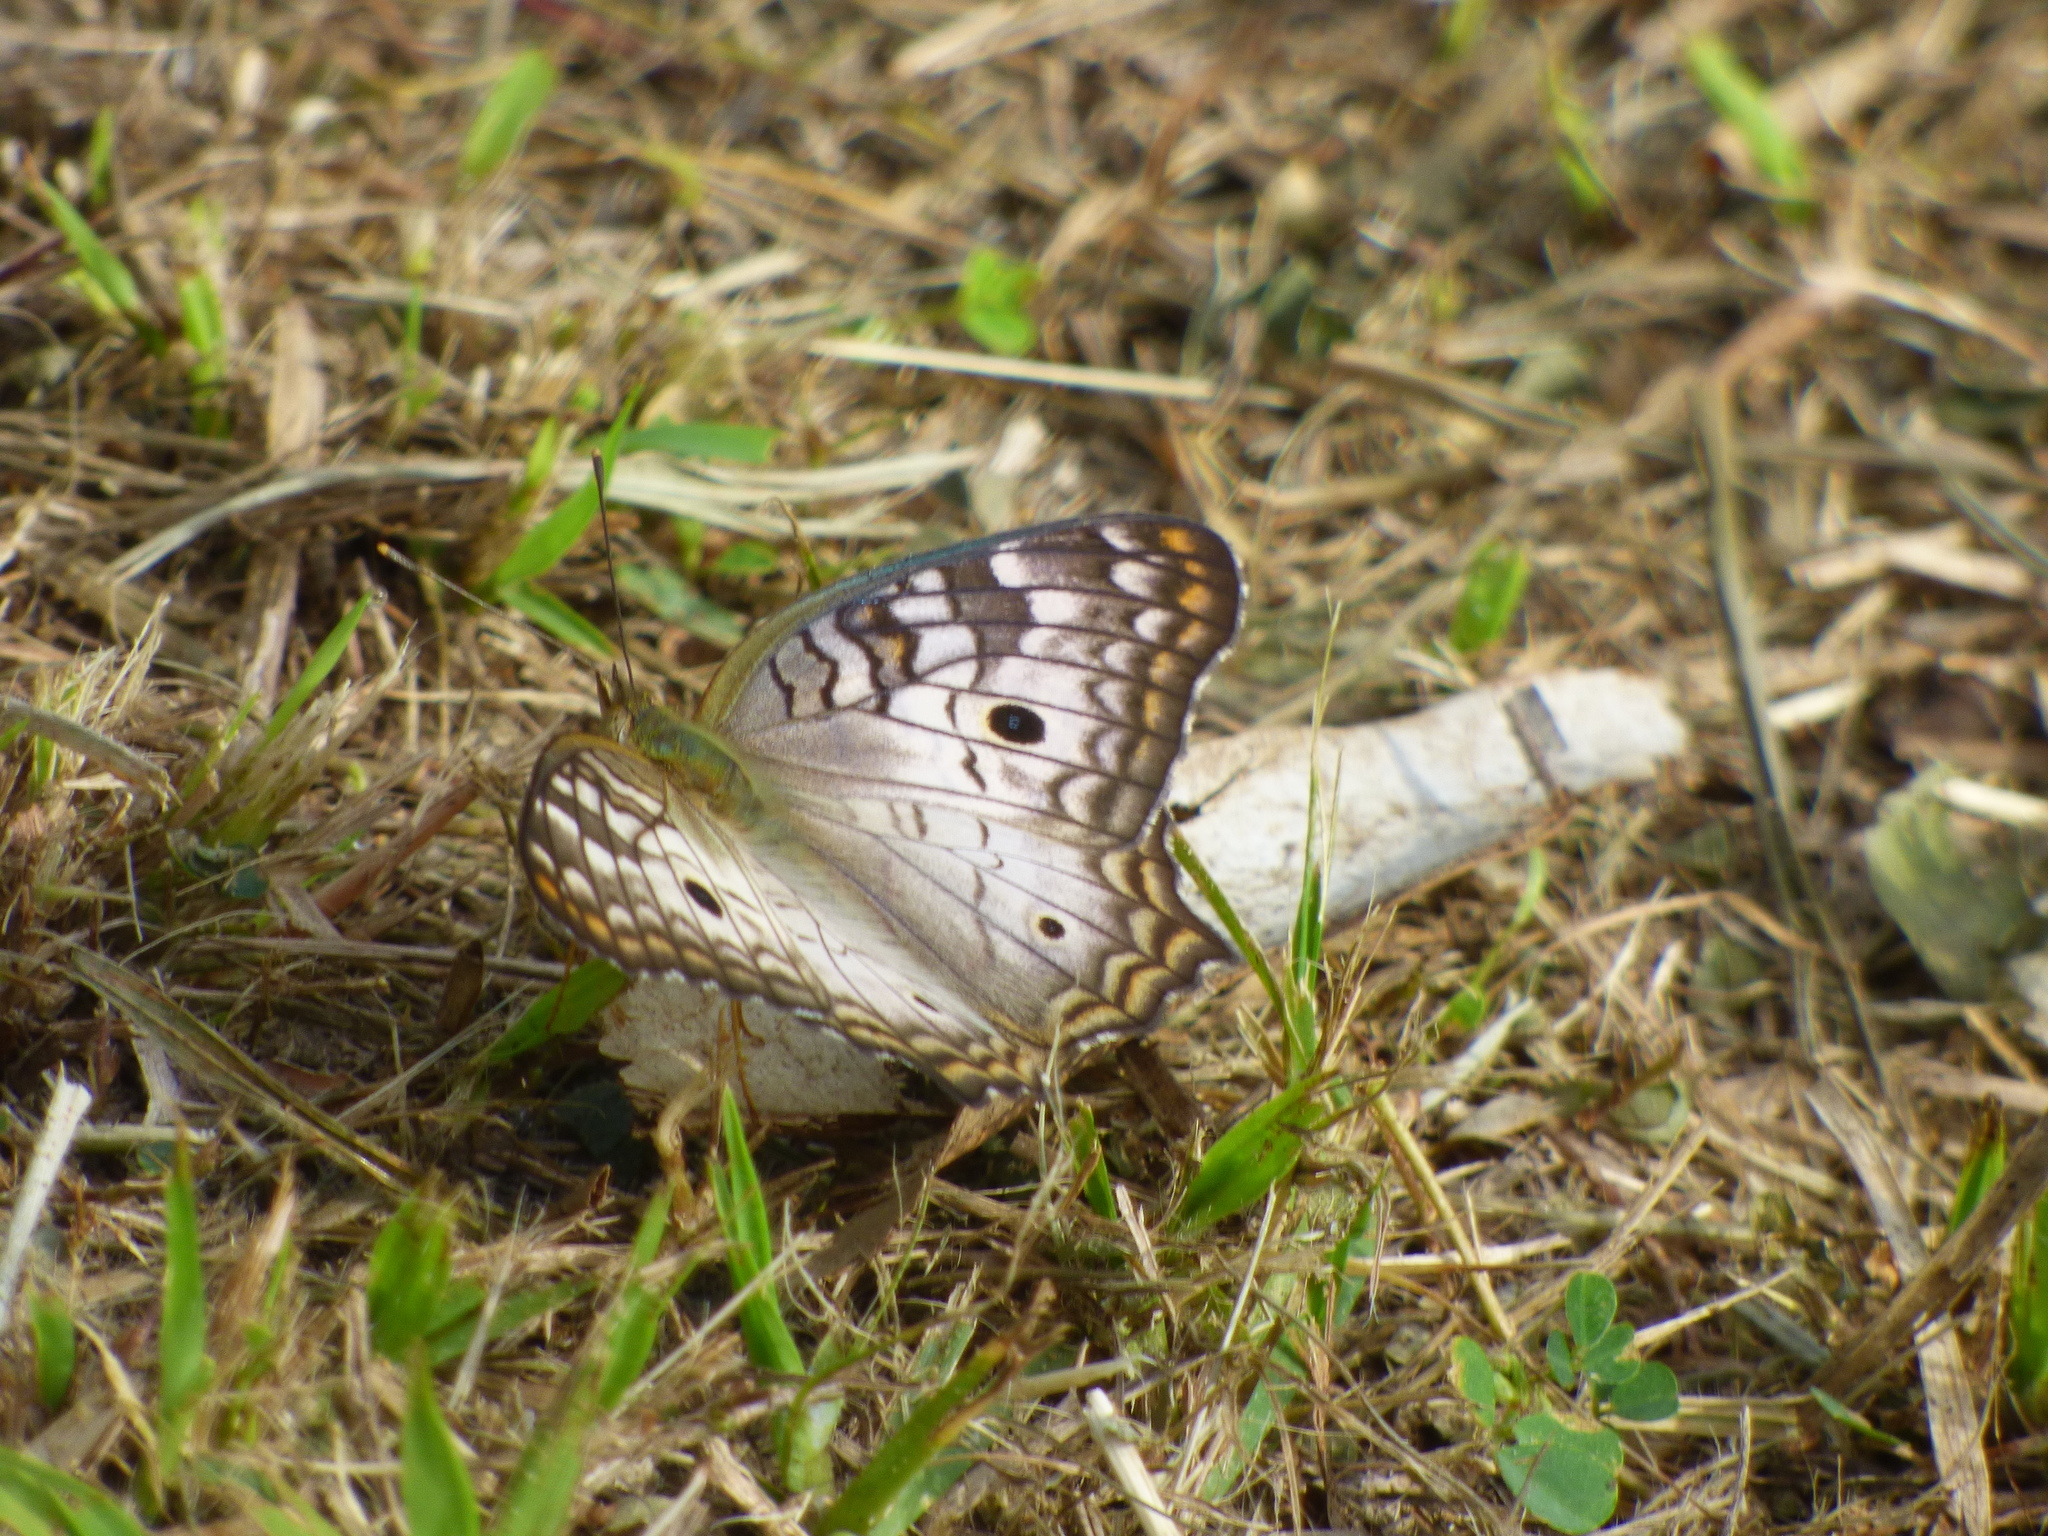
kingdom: Animalia
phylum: Arthropoda
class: Insecta
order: Lepidoptera
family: Nymphalidae
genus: Anartia
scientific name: Anartia jatrophae
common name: White peacock
